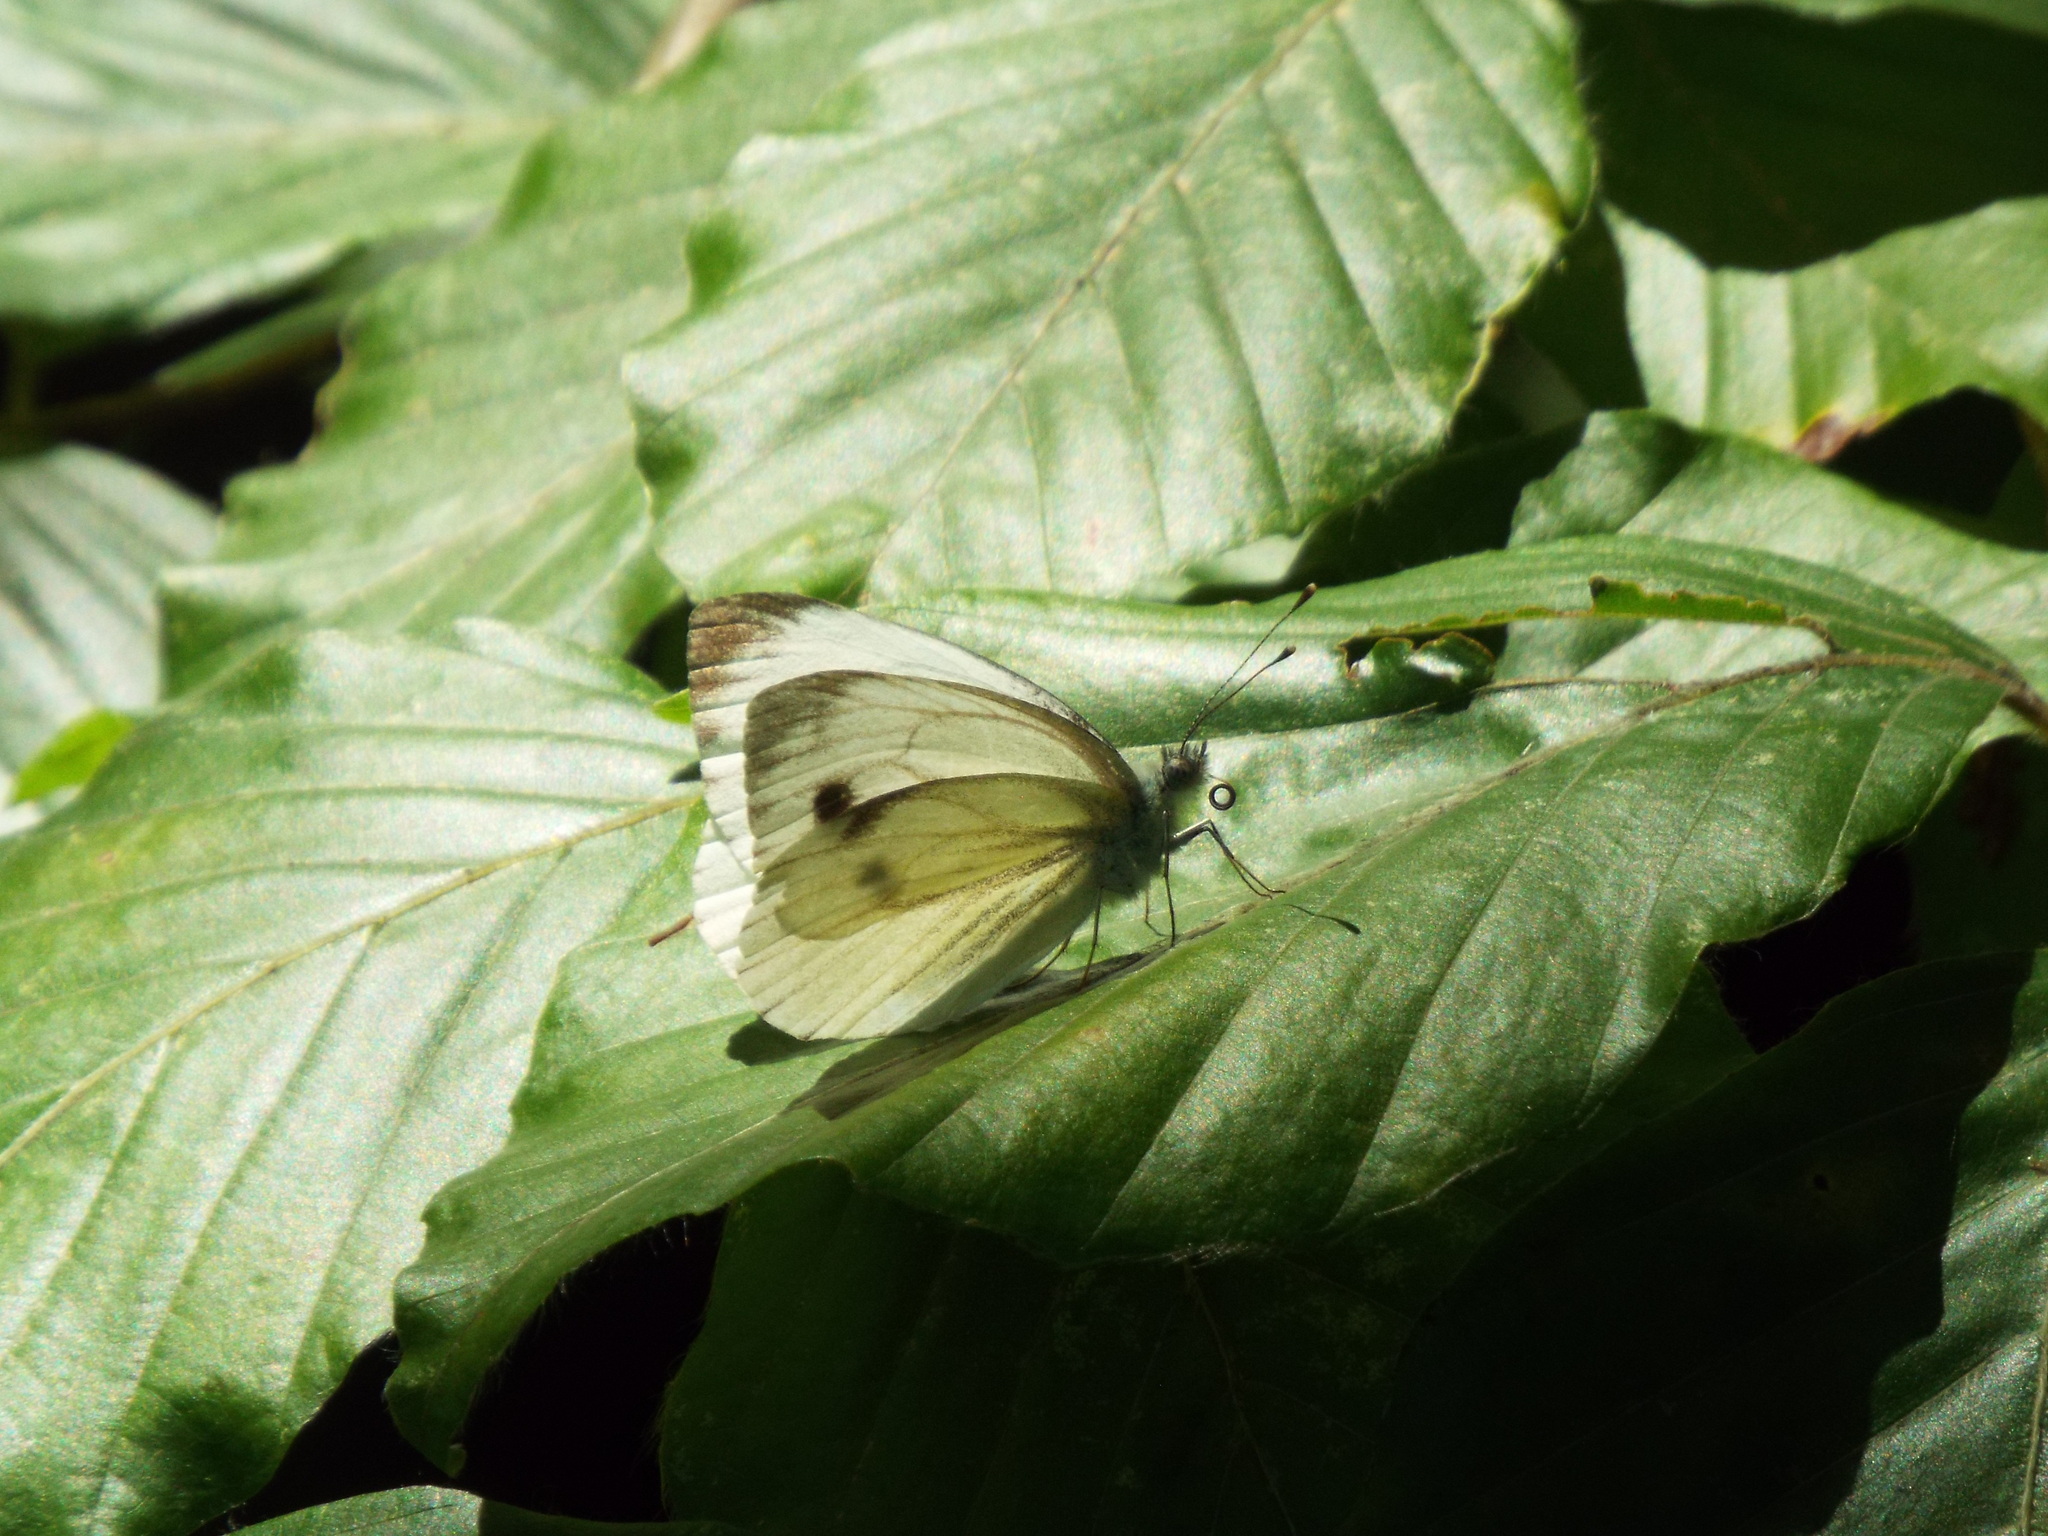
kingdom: Animalia
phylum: Arthropoda
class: Insecta
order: Lepidoptera
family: Pieridae
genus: Pieris
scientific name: Pieris napi
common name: Green-veined white
